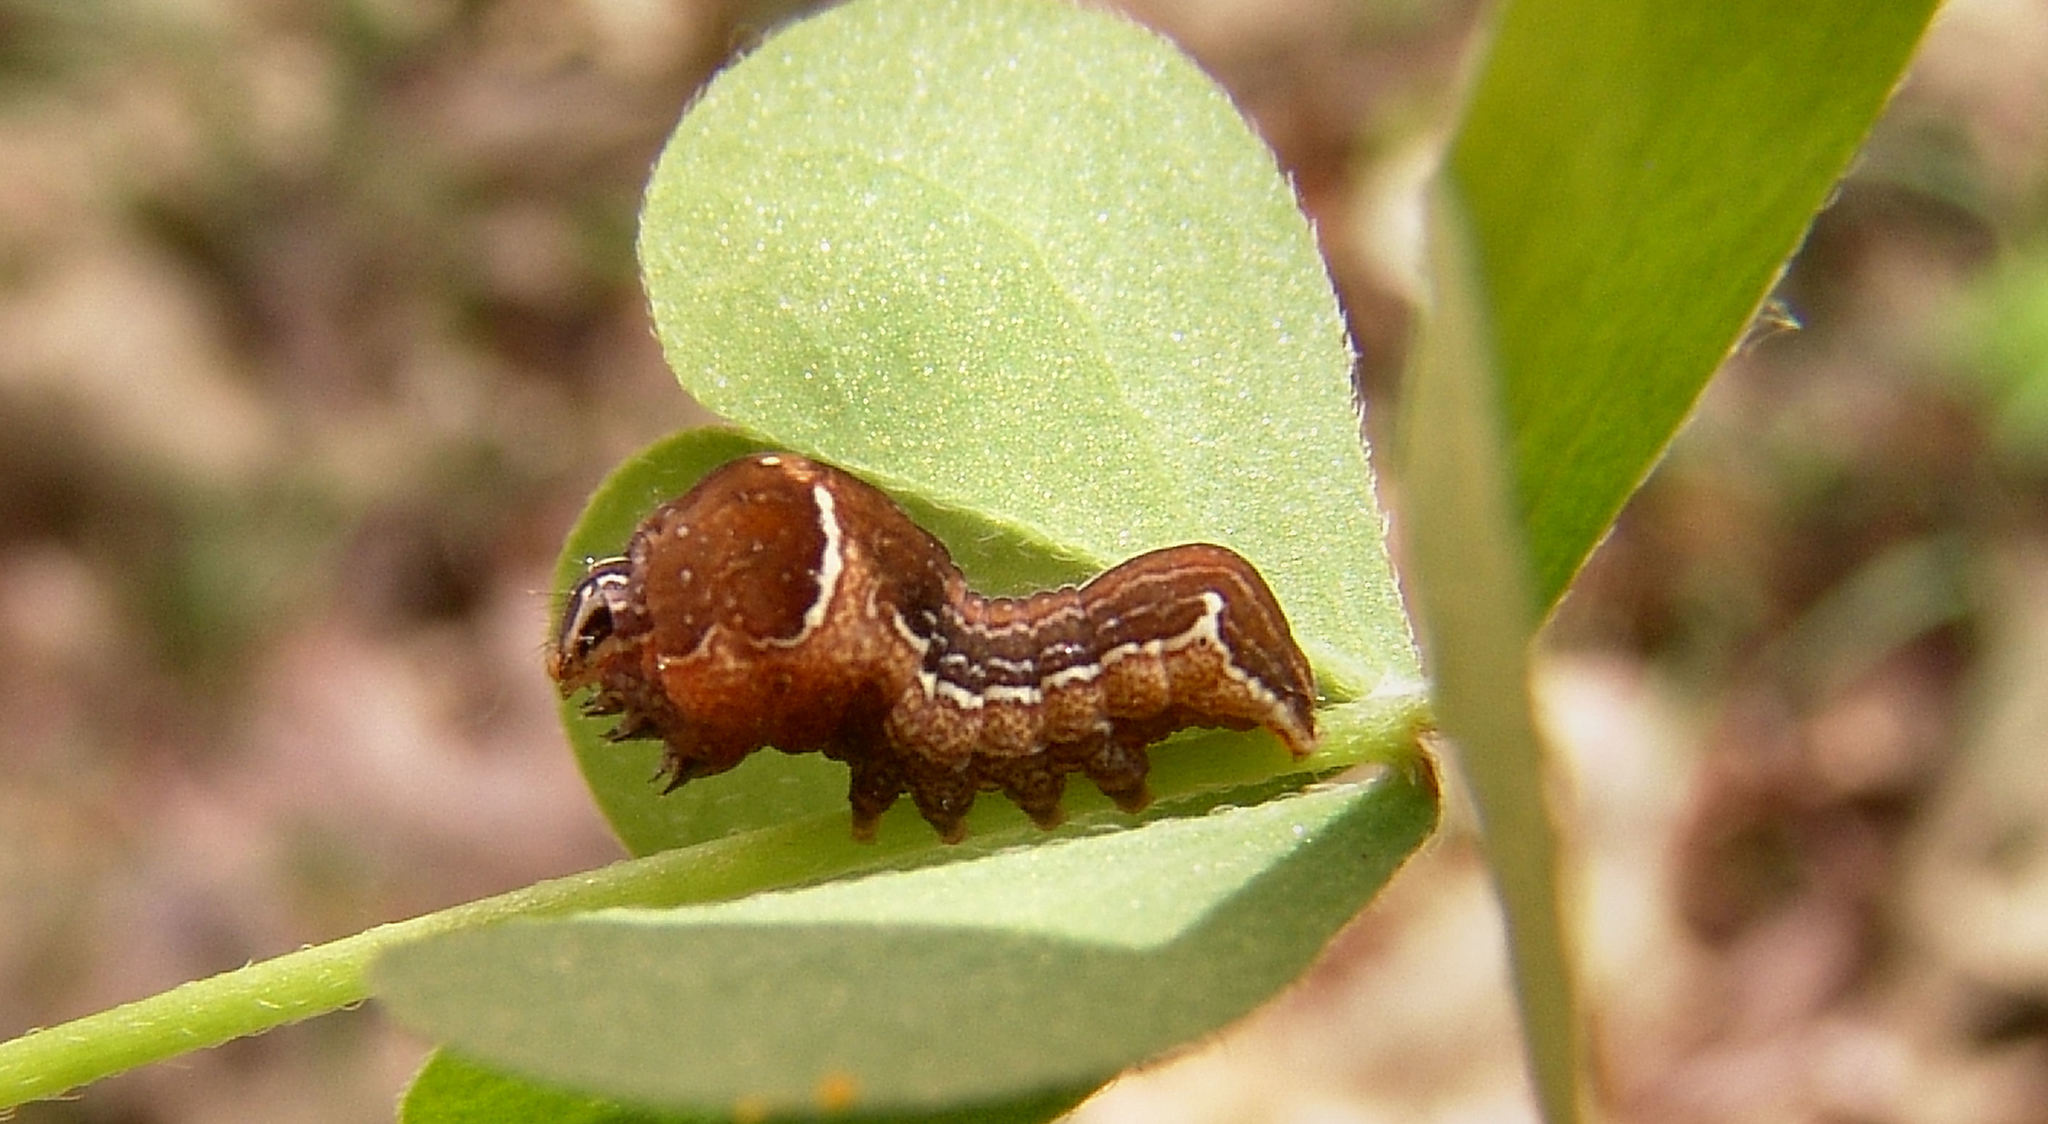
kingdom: Animalia
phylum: Arthropoda
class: Insecta
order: Lepidoptera
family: Noctuidae
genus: Galgula
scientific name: Galgula partita
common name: Wedgeling
